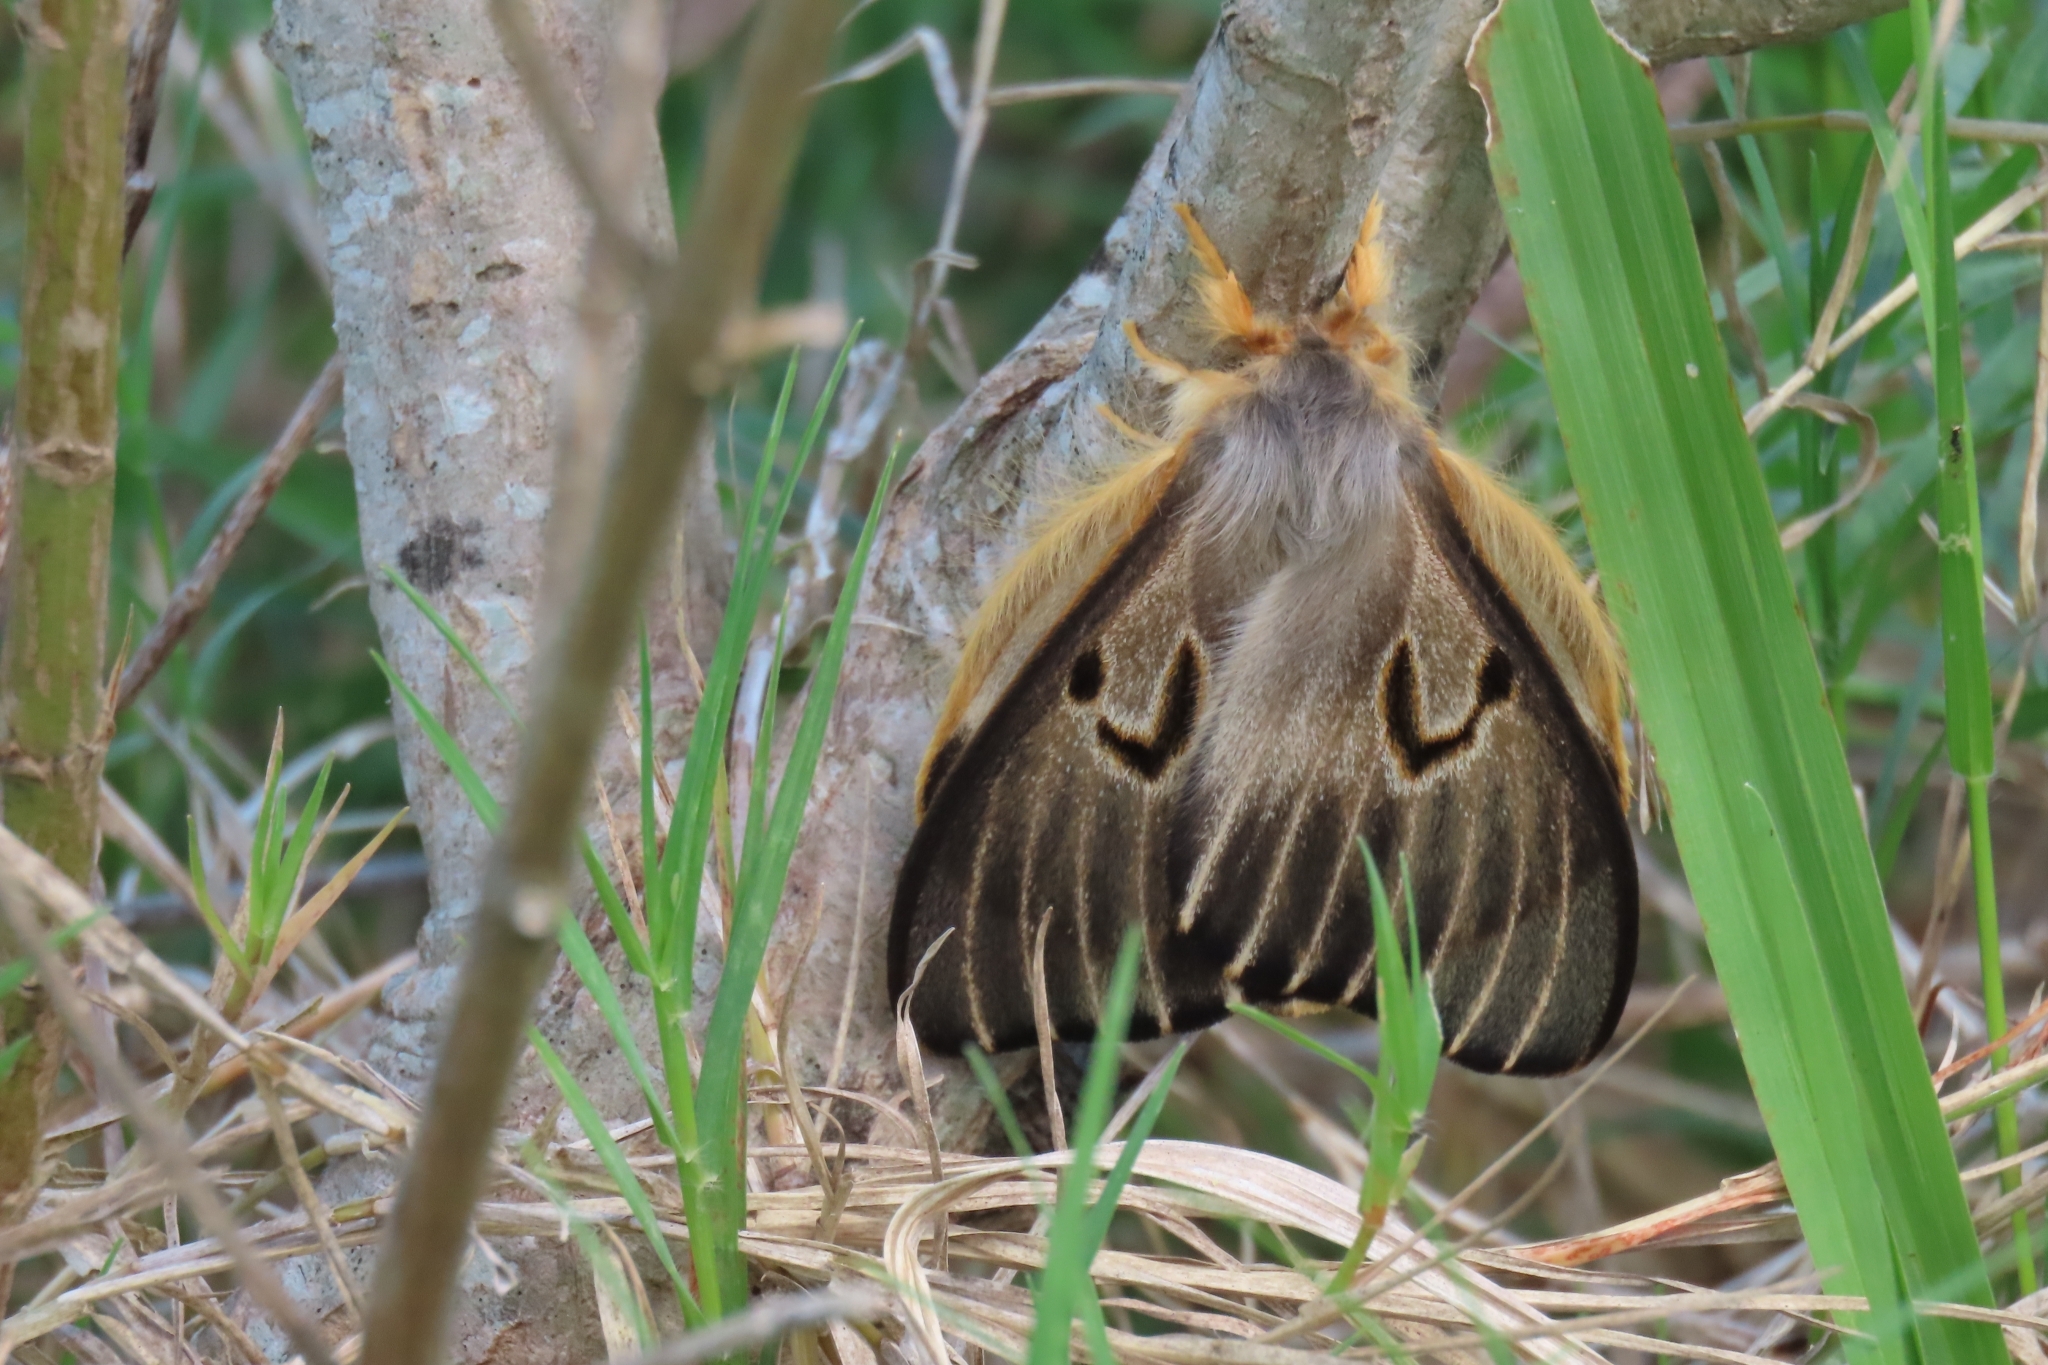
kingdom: Animalia
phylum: Arthropoda
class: Insecta
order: Lepidoptera
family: Saturniidae
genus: Heliconisa
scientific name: Heliconisa pagenstecheri
